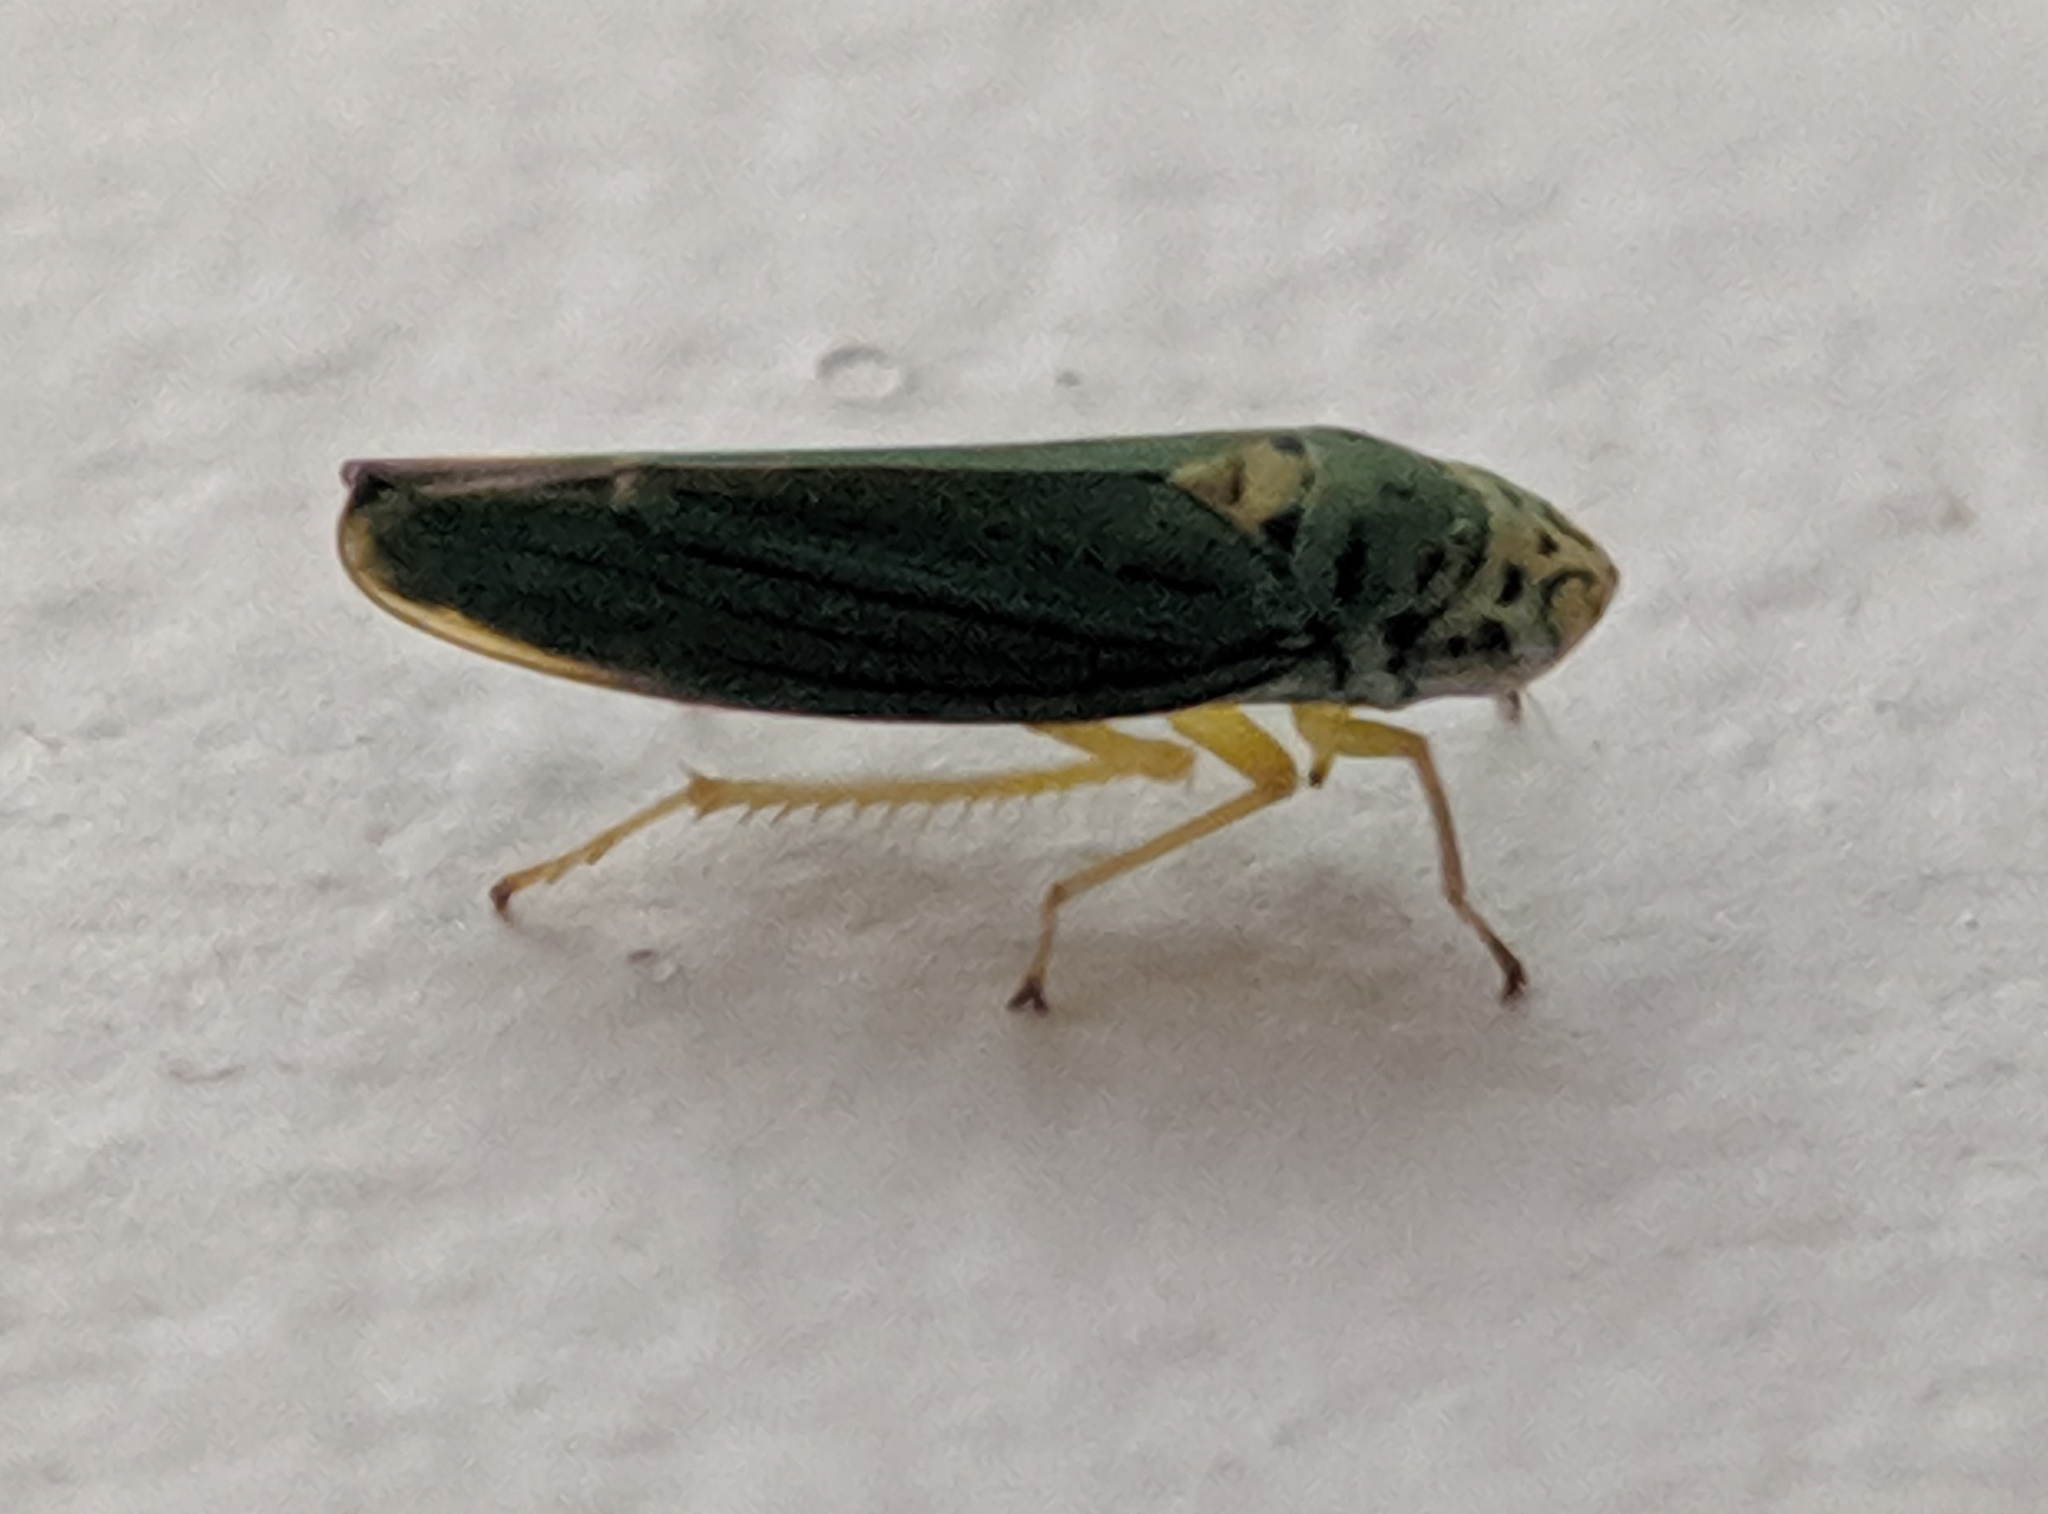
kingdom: Animalia
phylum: Arthropoda
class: Insecta
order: Hemiptera
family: Cicadellidae
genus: Graphocephala
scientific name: Graphocephala atropunctata
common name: Blue-green sharpshooter
